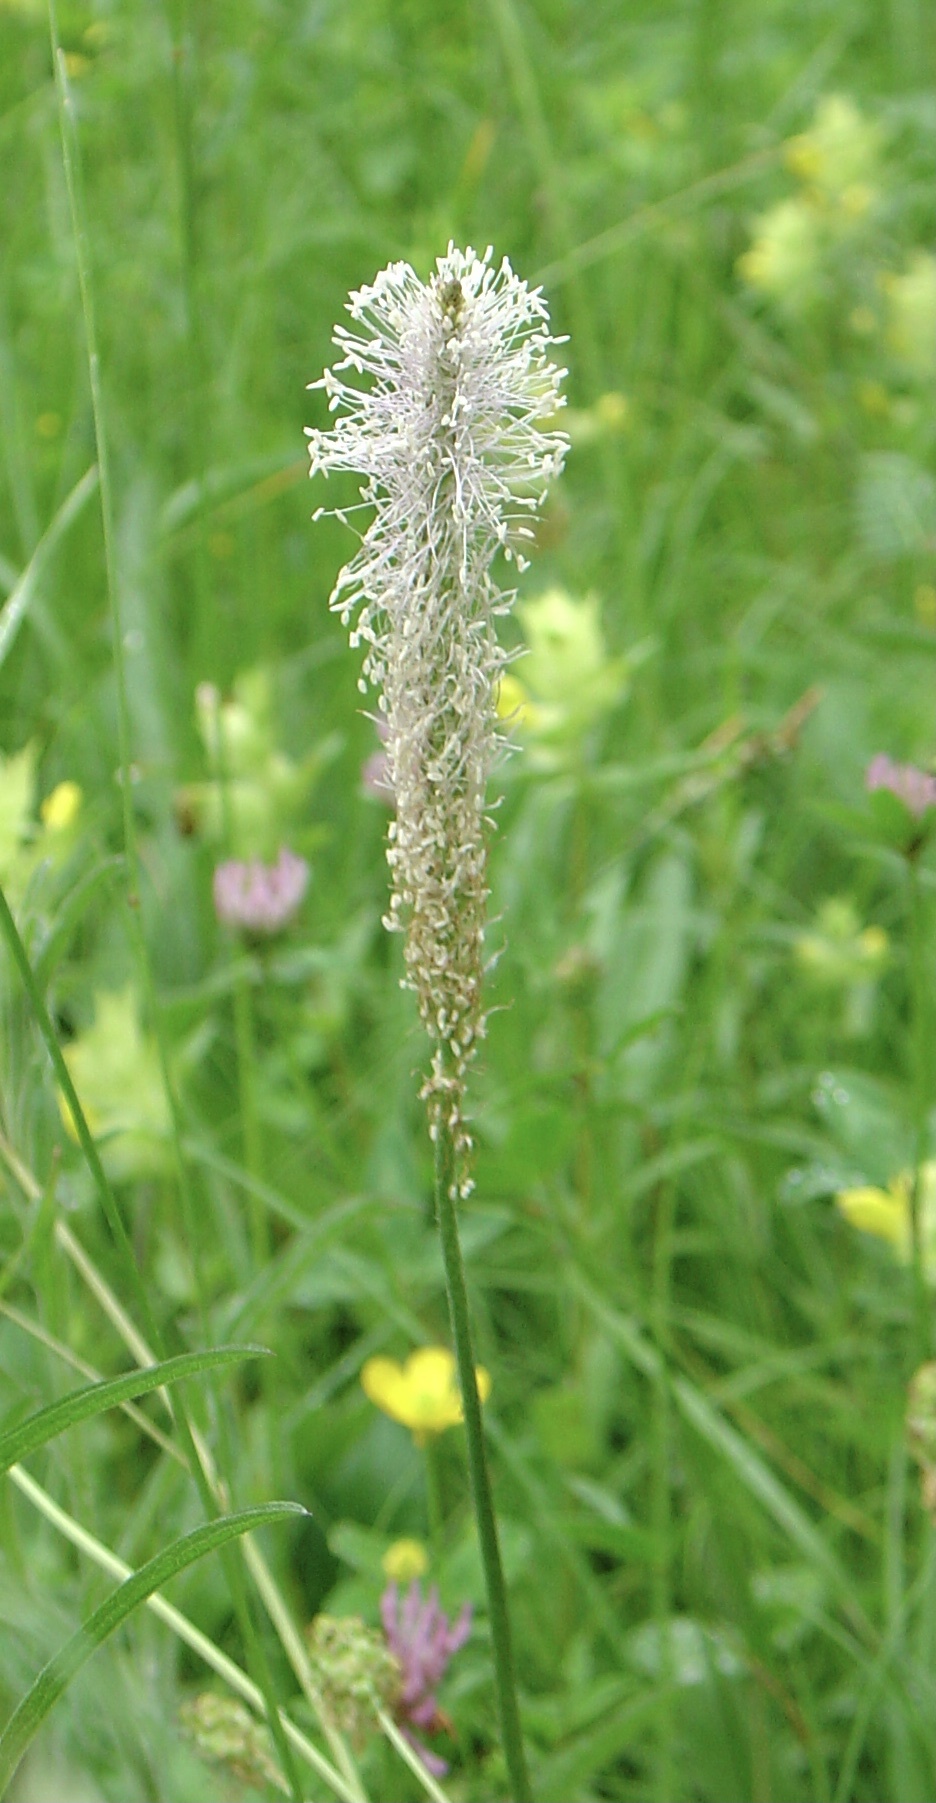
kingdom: Plantae
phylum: Tracheophyta
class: Magnoliopsida
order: Lamiales
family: Plantaginaceae
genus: Plantago
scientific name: Plantago media
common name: Hoary plantain
